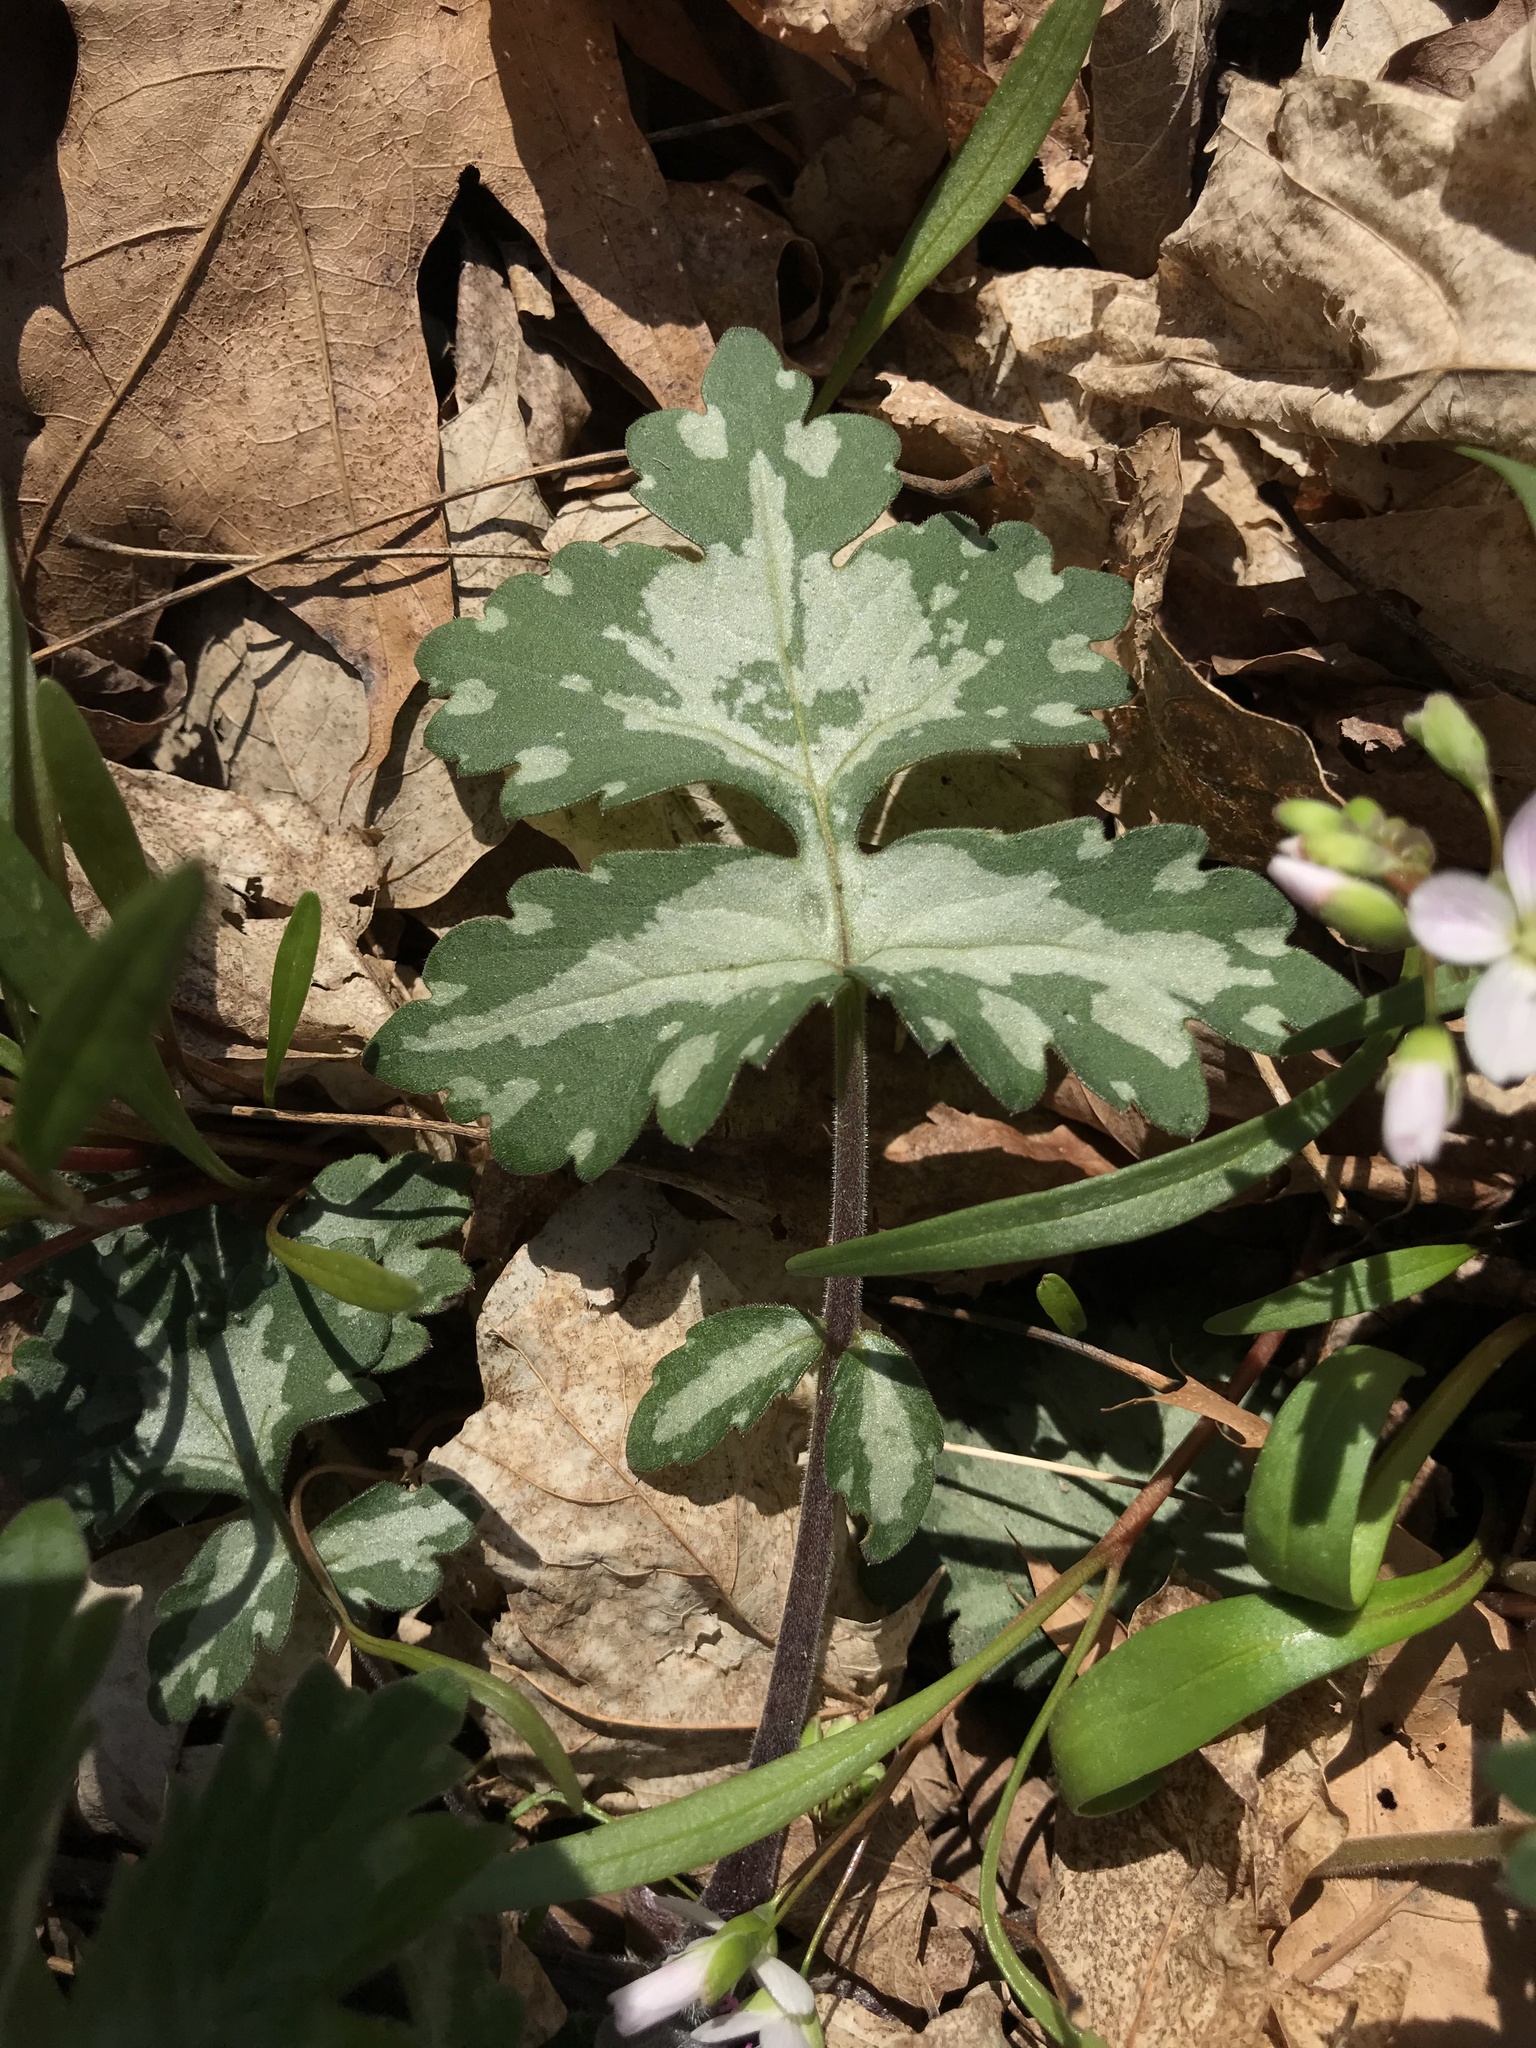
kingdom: Plantae
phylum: Tracheophyta
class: Magnoliopsida
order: Boraginales
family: Hydrophyllaceae
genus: Hydrophyllum
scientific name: Hydrophyllum appendiculatum
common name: Appendaged waterleaf
